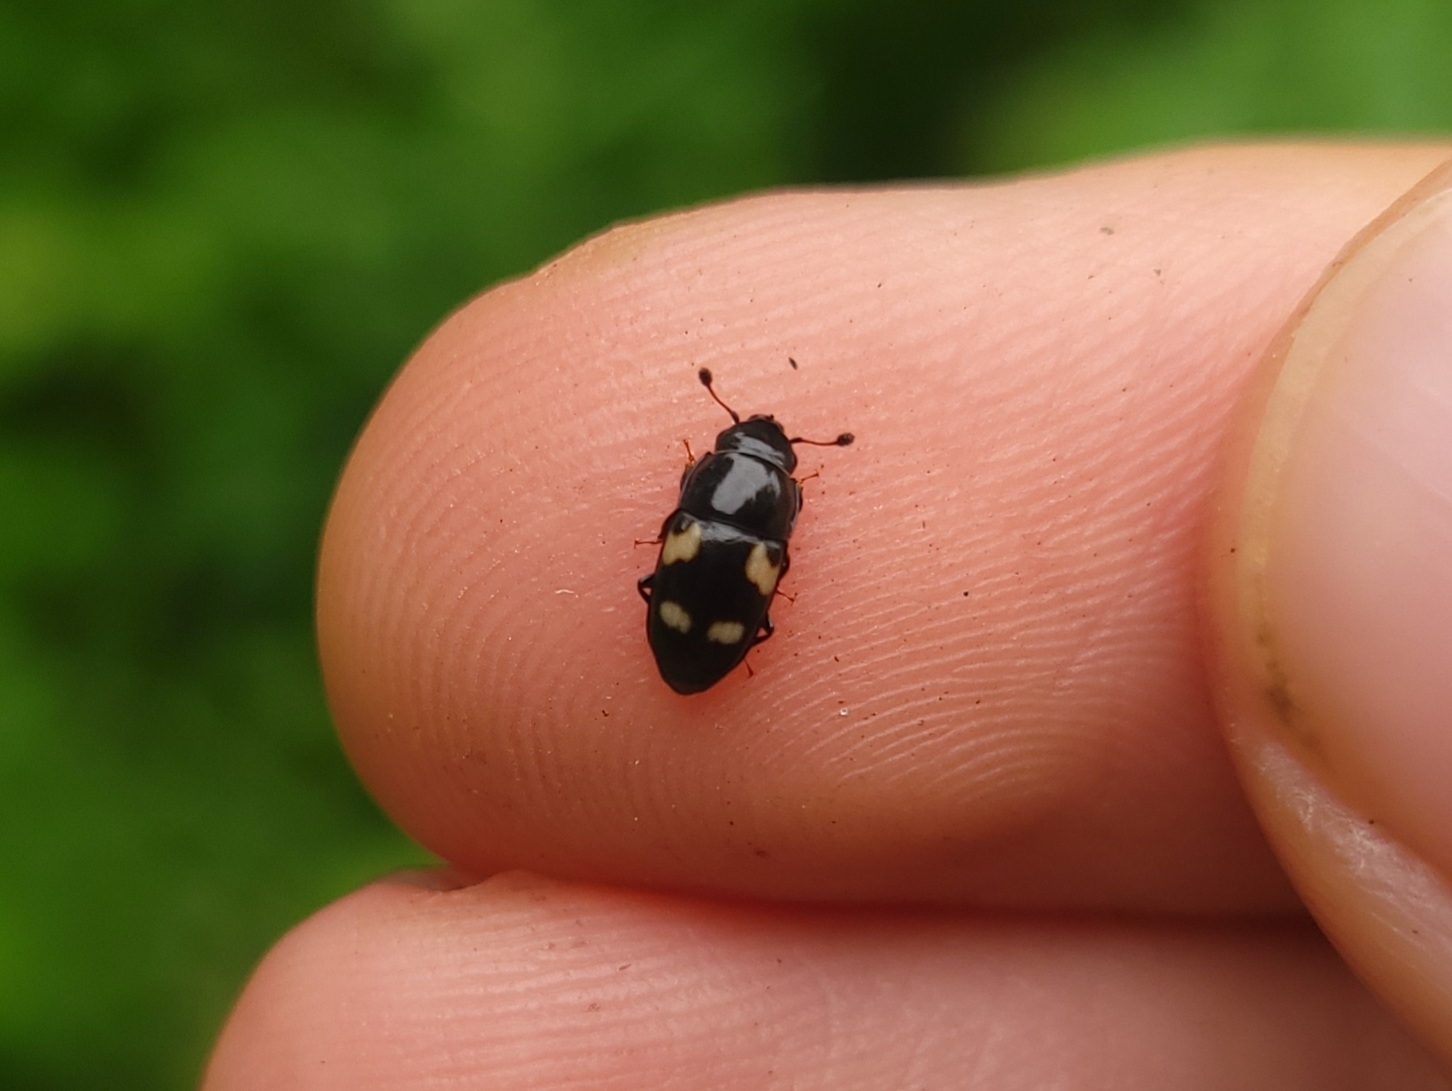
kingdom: Animalia
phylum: Arthropoda
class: Insecta
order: Coleoptera
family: Nitidulidae
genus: Glischrochilus
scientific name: Glischrochilus quadrisignatus
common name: Picnic beetle
